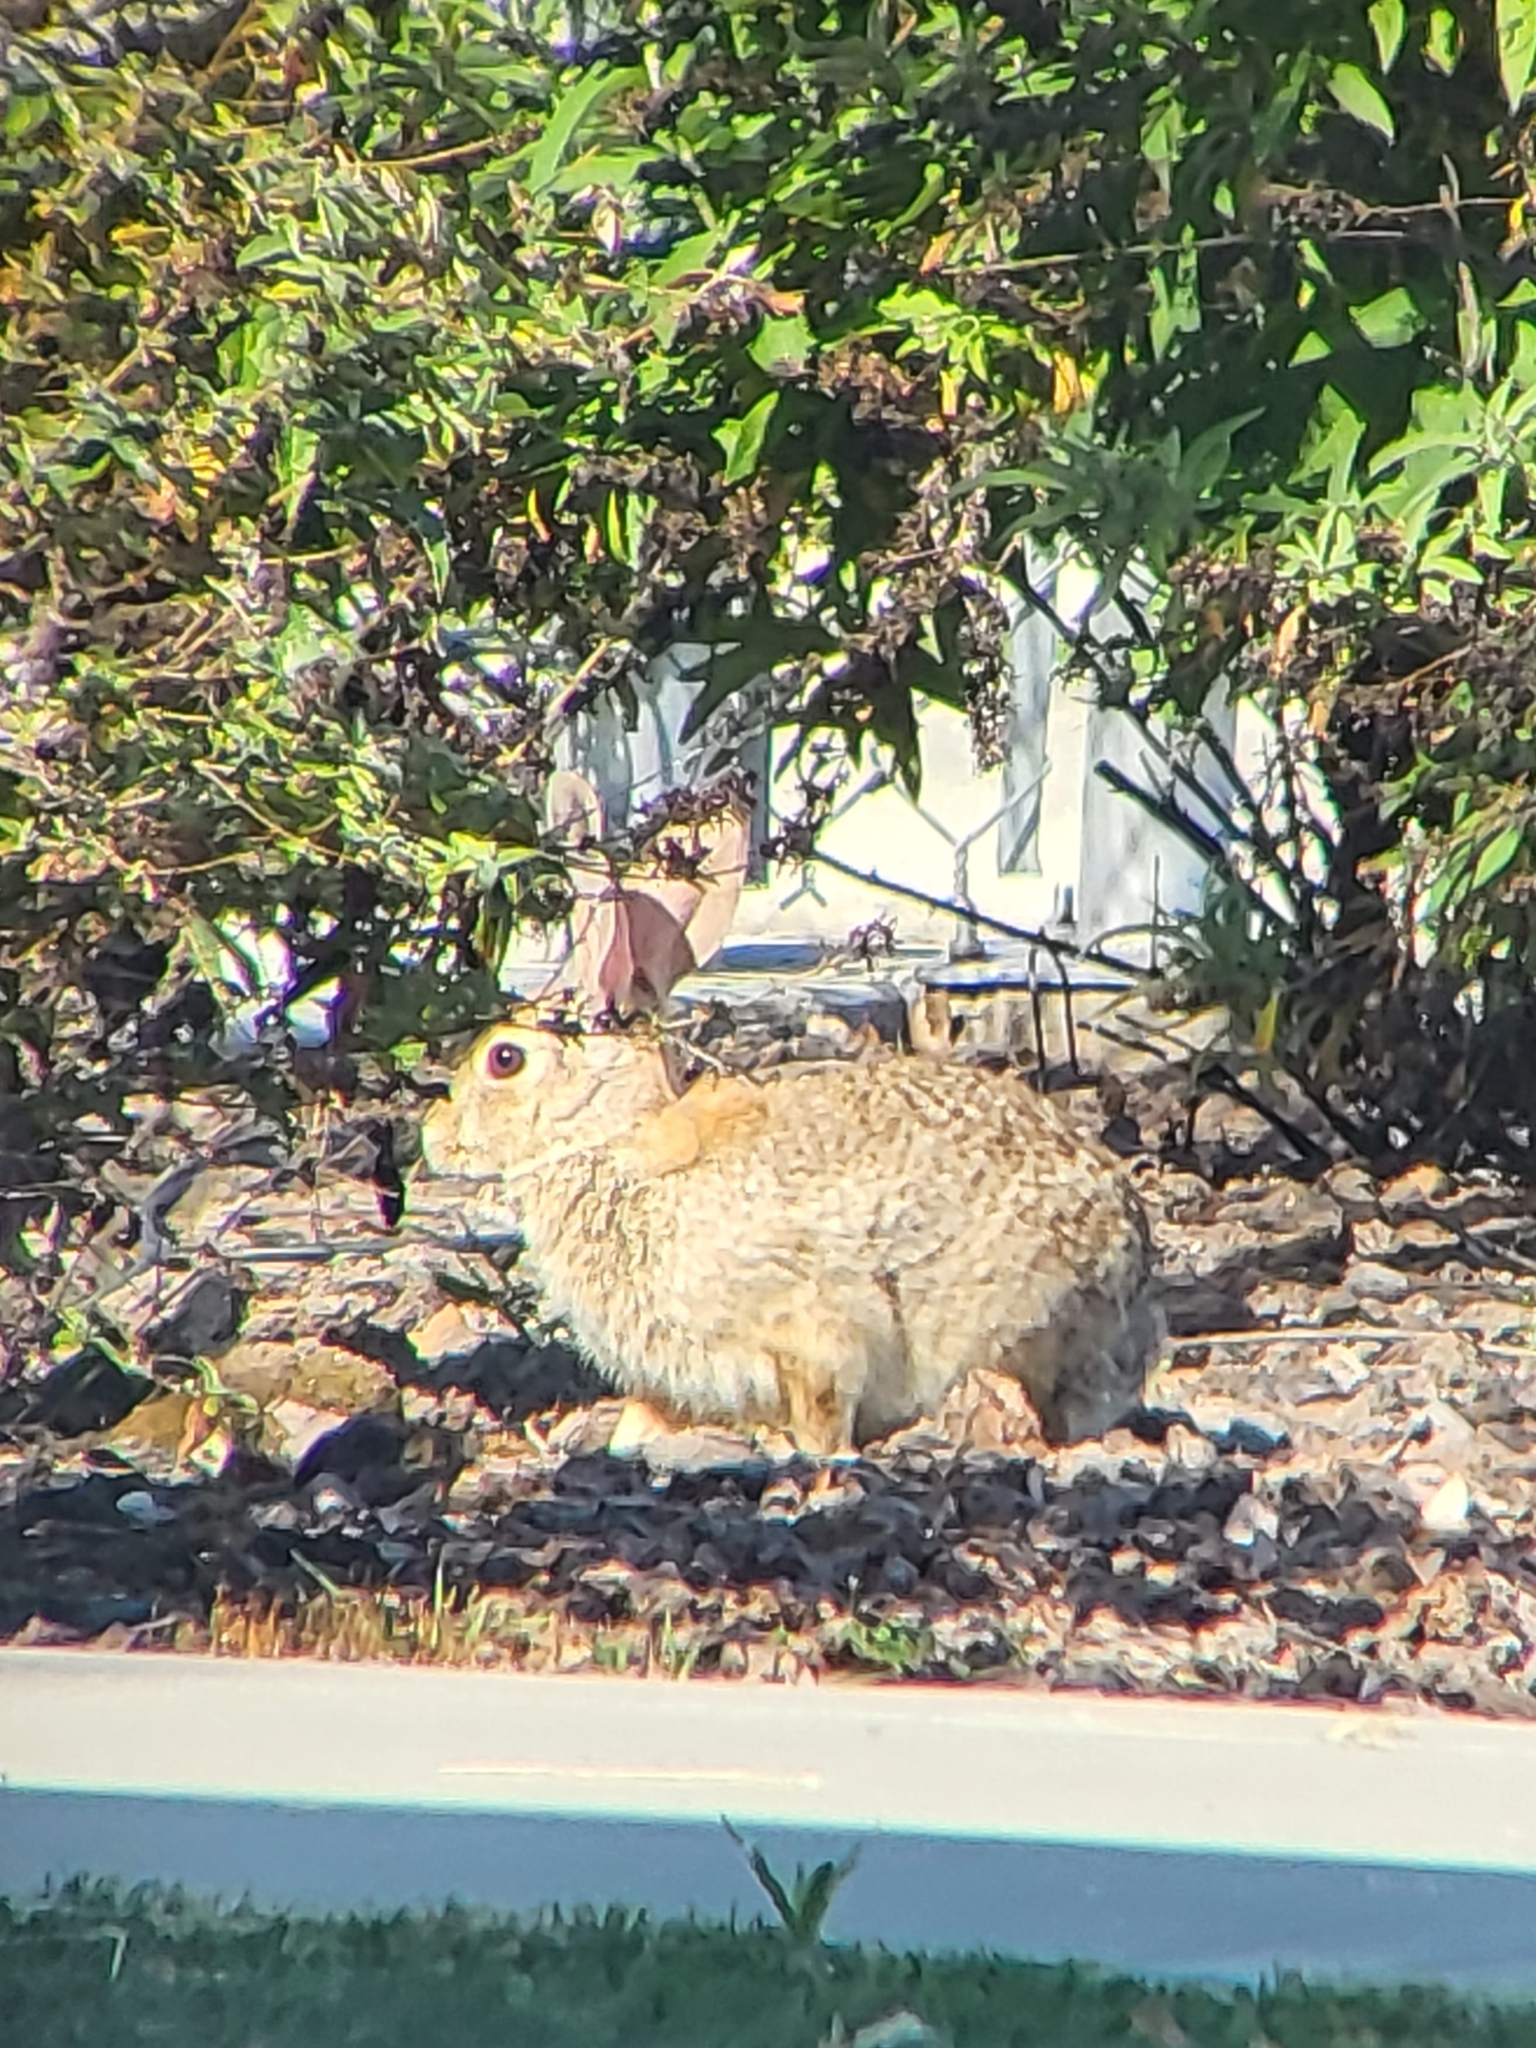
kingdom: Animalia
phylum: Chordata
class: Mammalia
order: Lagomorpha
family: Leporidae
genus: Sylvilagus
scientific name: Sylvilagus audubonii
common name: Desert cottontail
